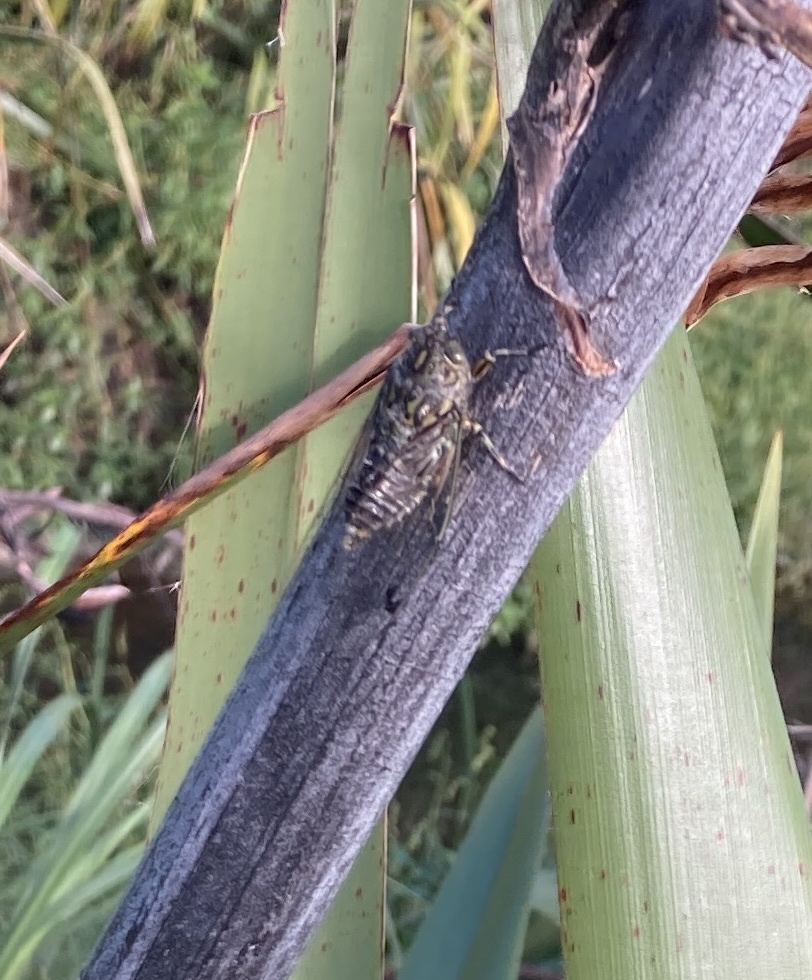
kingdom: Animalia
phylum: Arthropoda
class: Insecta
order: Hemiptera
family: Cicadidae
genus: Amphipsalta
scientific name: Amphipsalta cingulata
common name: Clapping cicada
